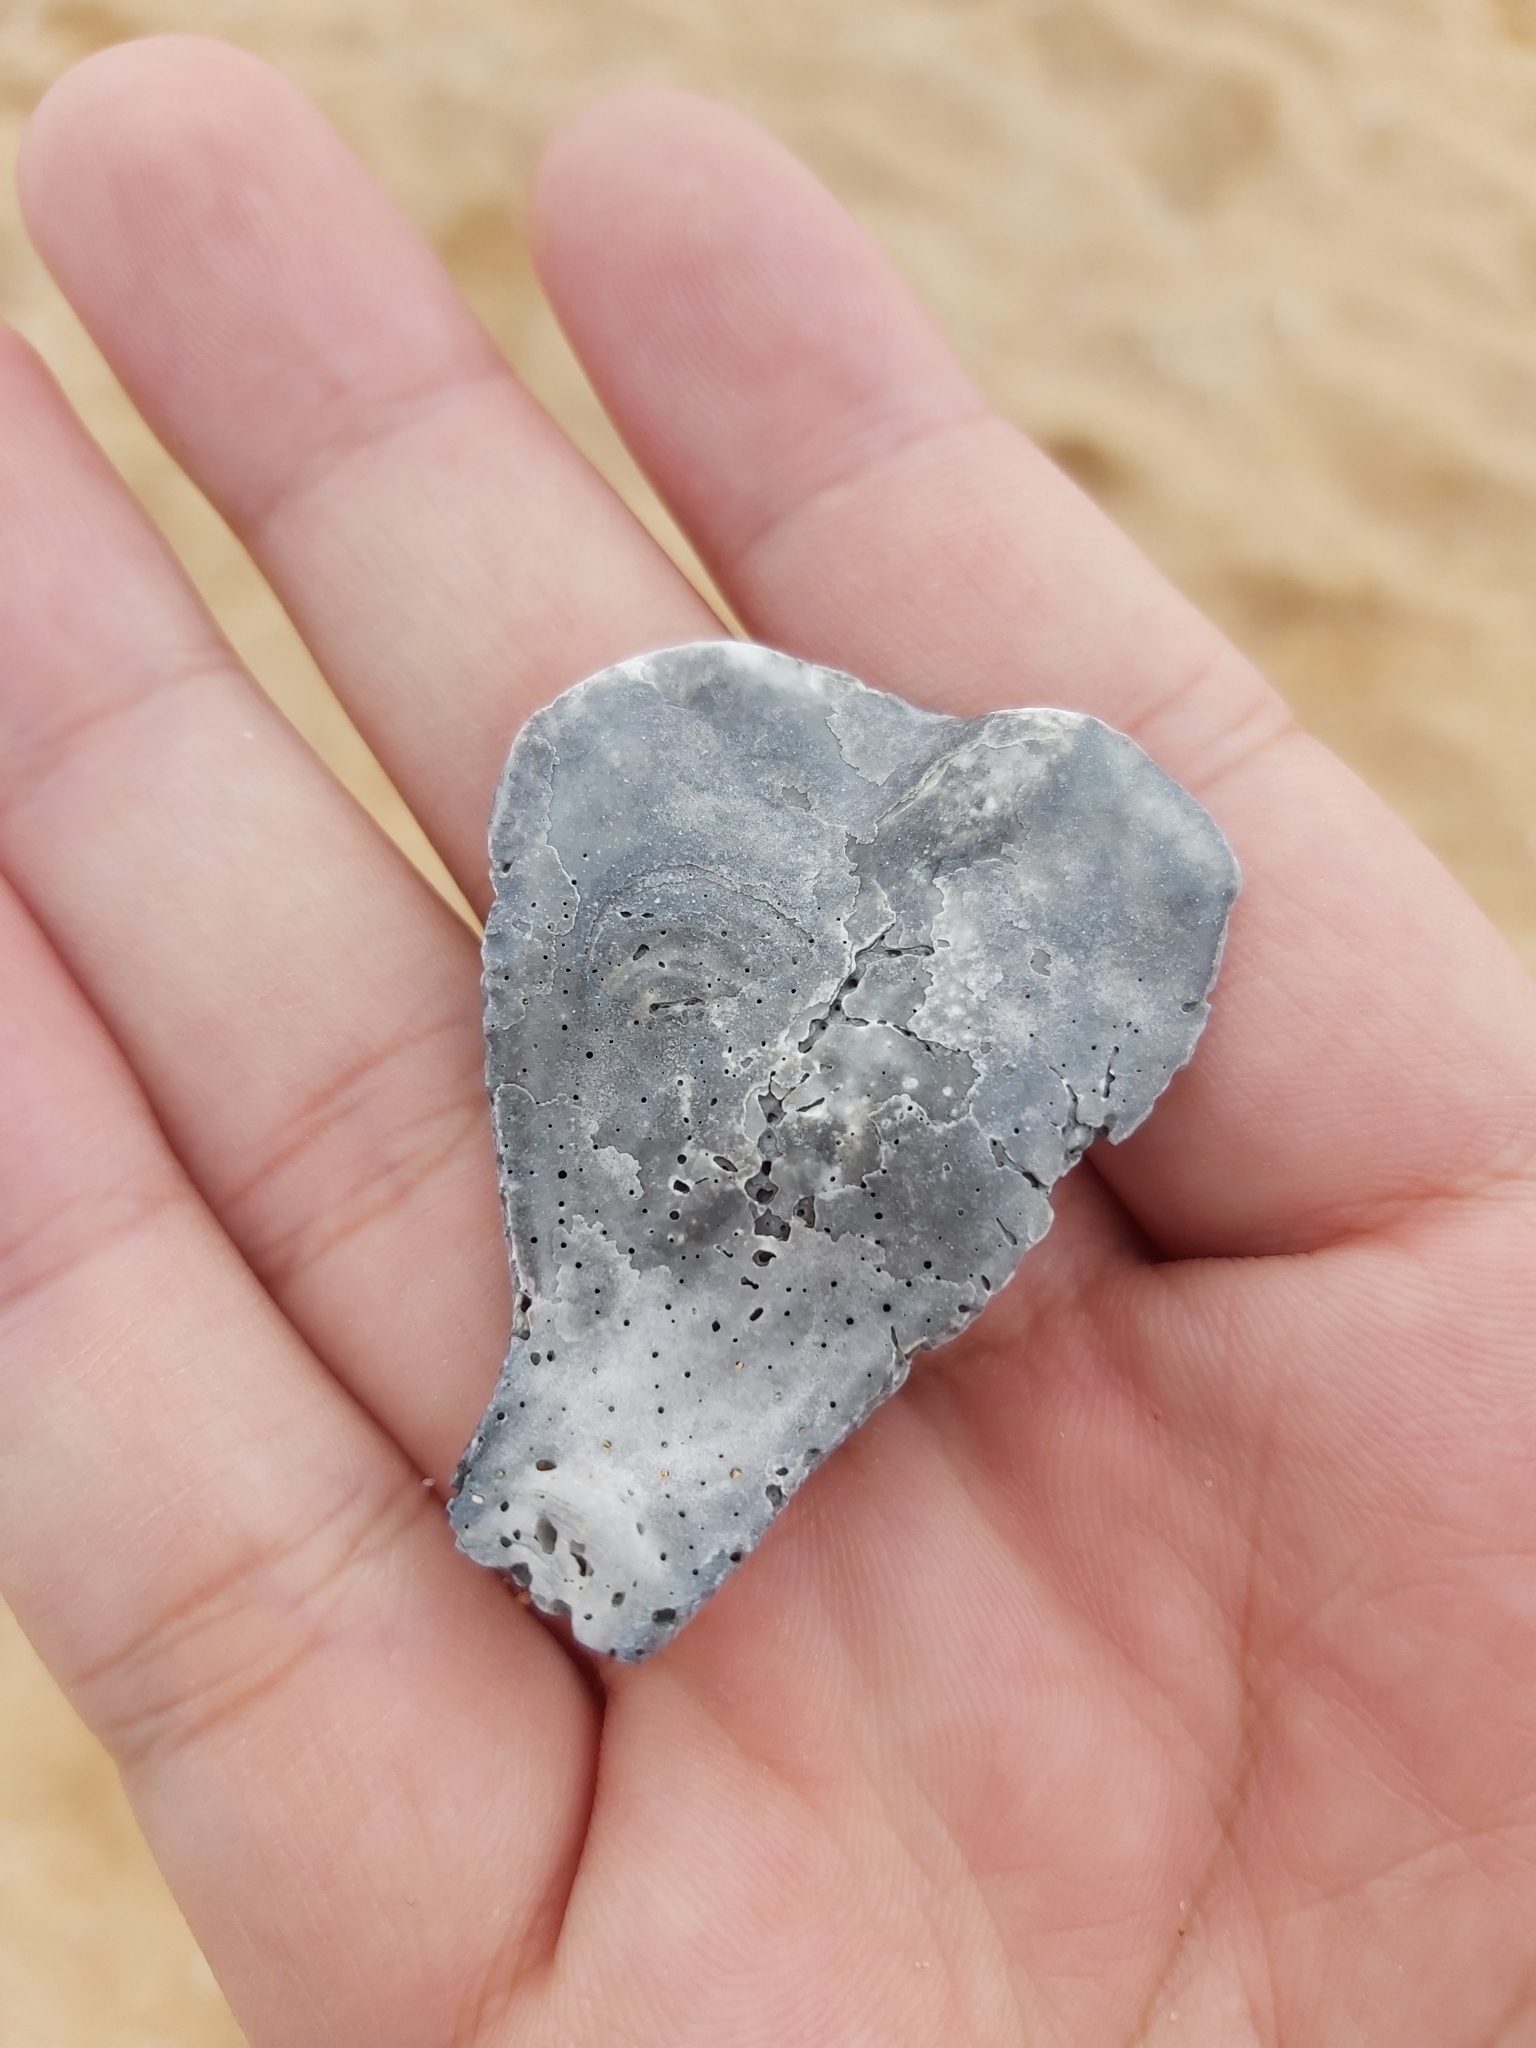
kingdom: Animalia
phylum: Mollusca
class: Bivalvia
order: Ostreida
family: Ostreidae
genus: Ostrea
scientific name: Ostrea angasi
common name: Angasi oyster
